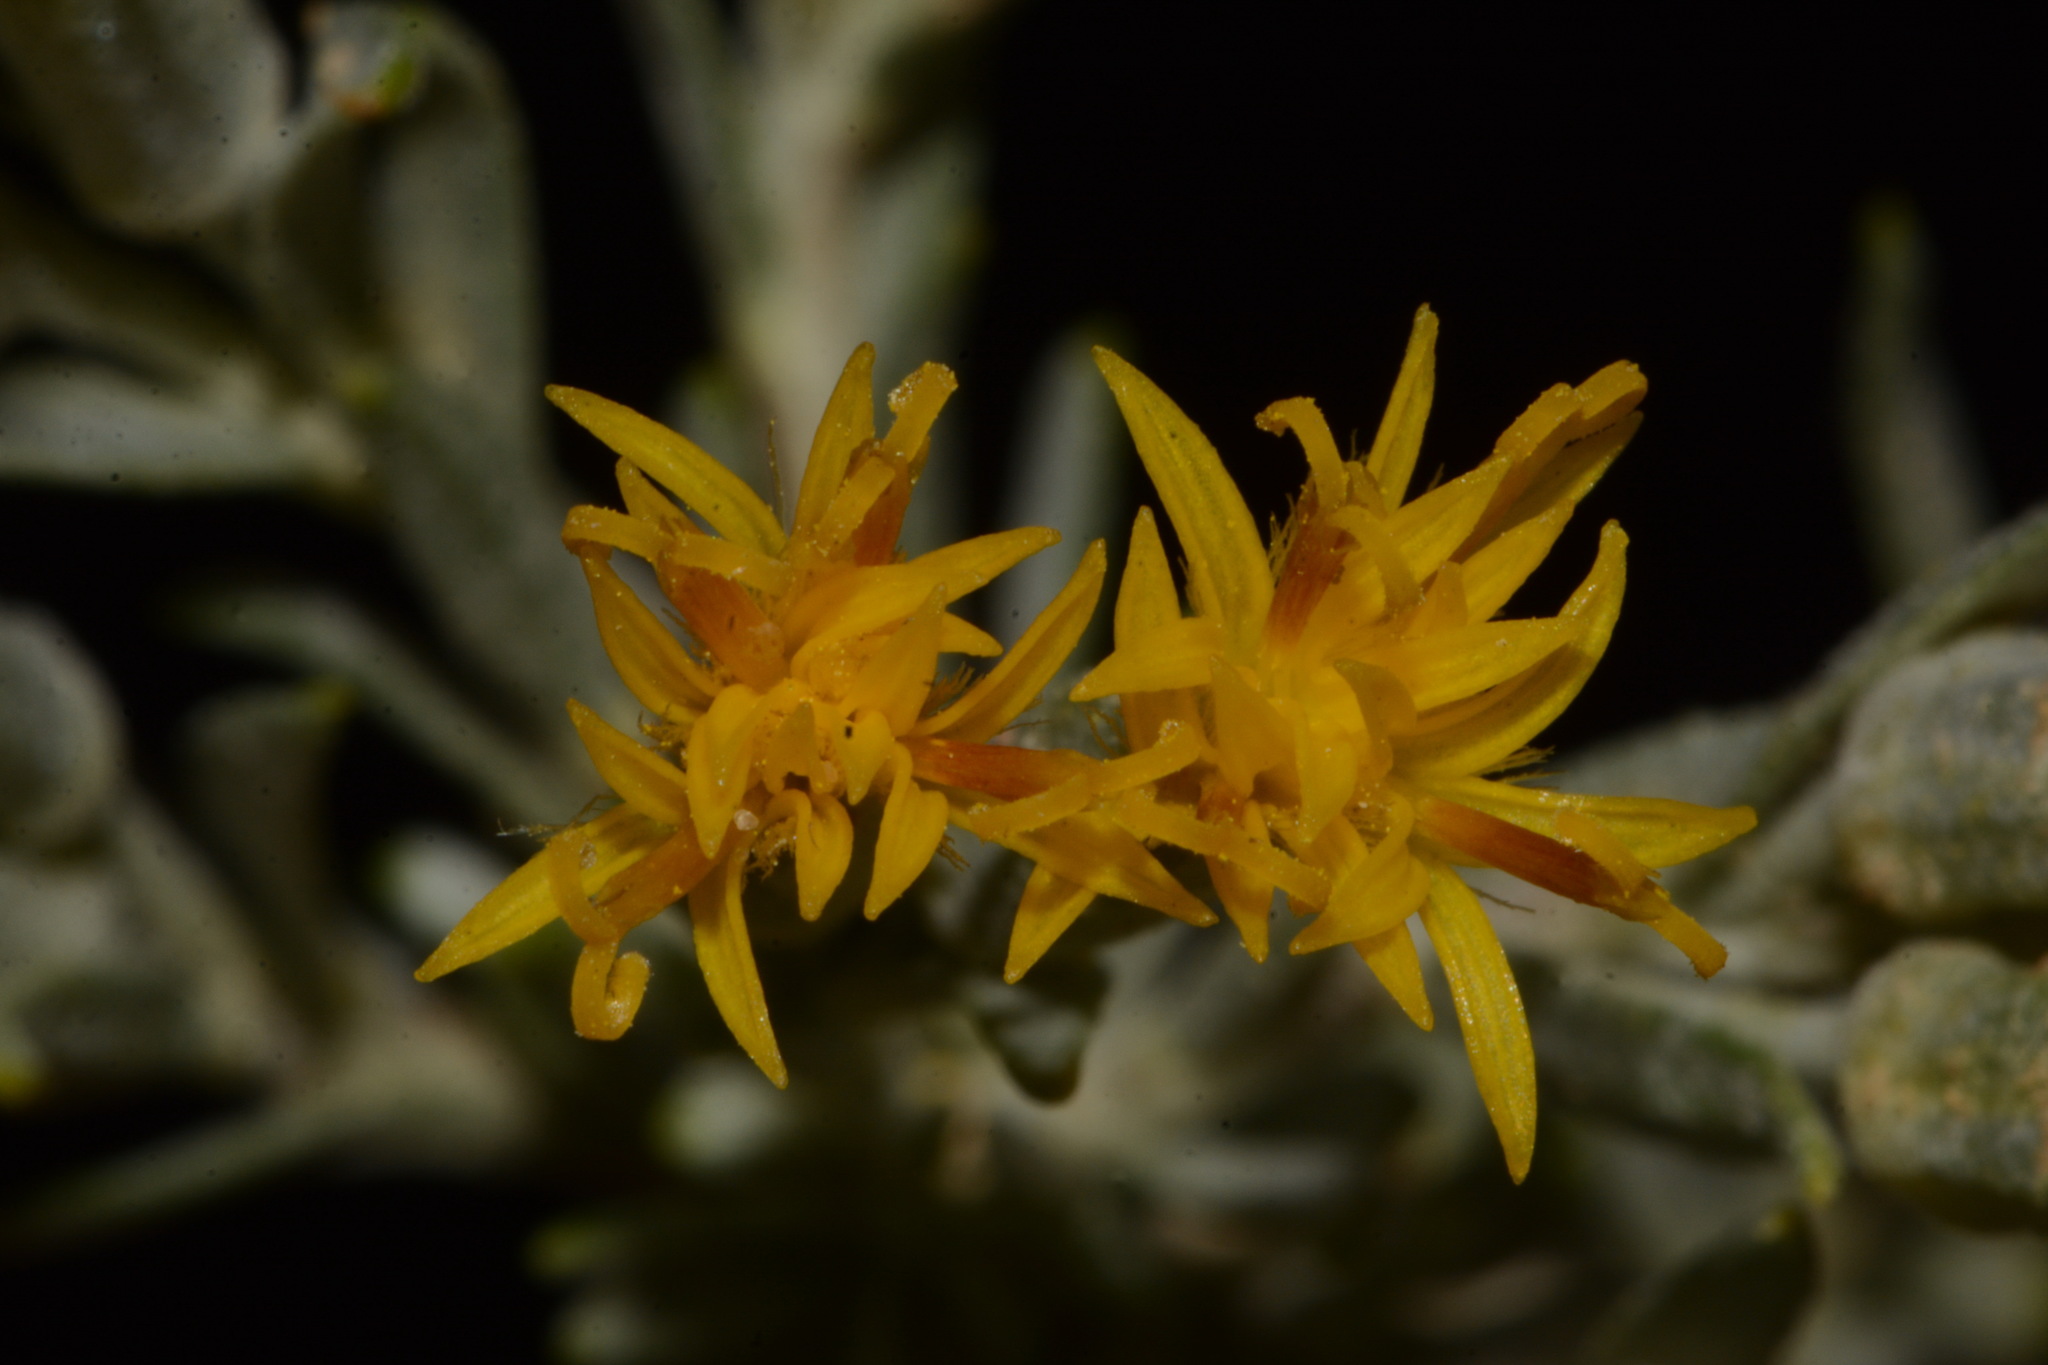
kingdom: Plantae
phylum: Tracheophyta
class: Magnoliopsida
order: Asterales
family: Asteraceae
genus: Tetradymia
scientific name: Tetradymia canescens
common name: Spineless horsebrush
